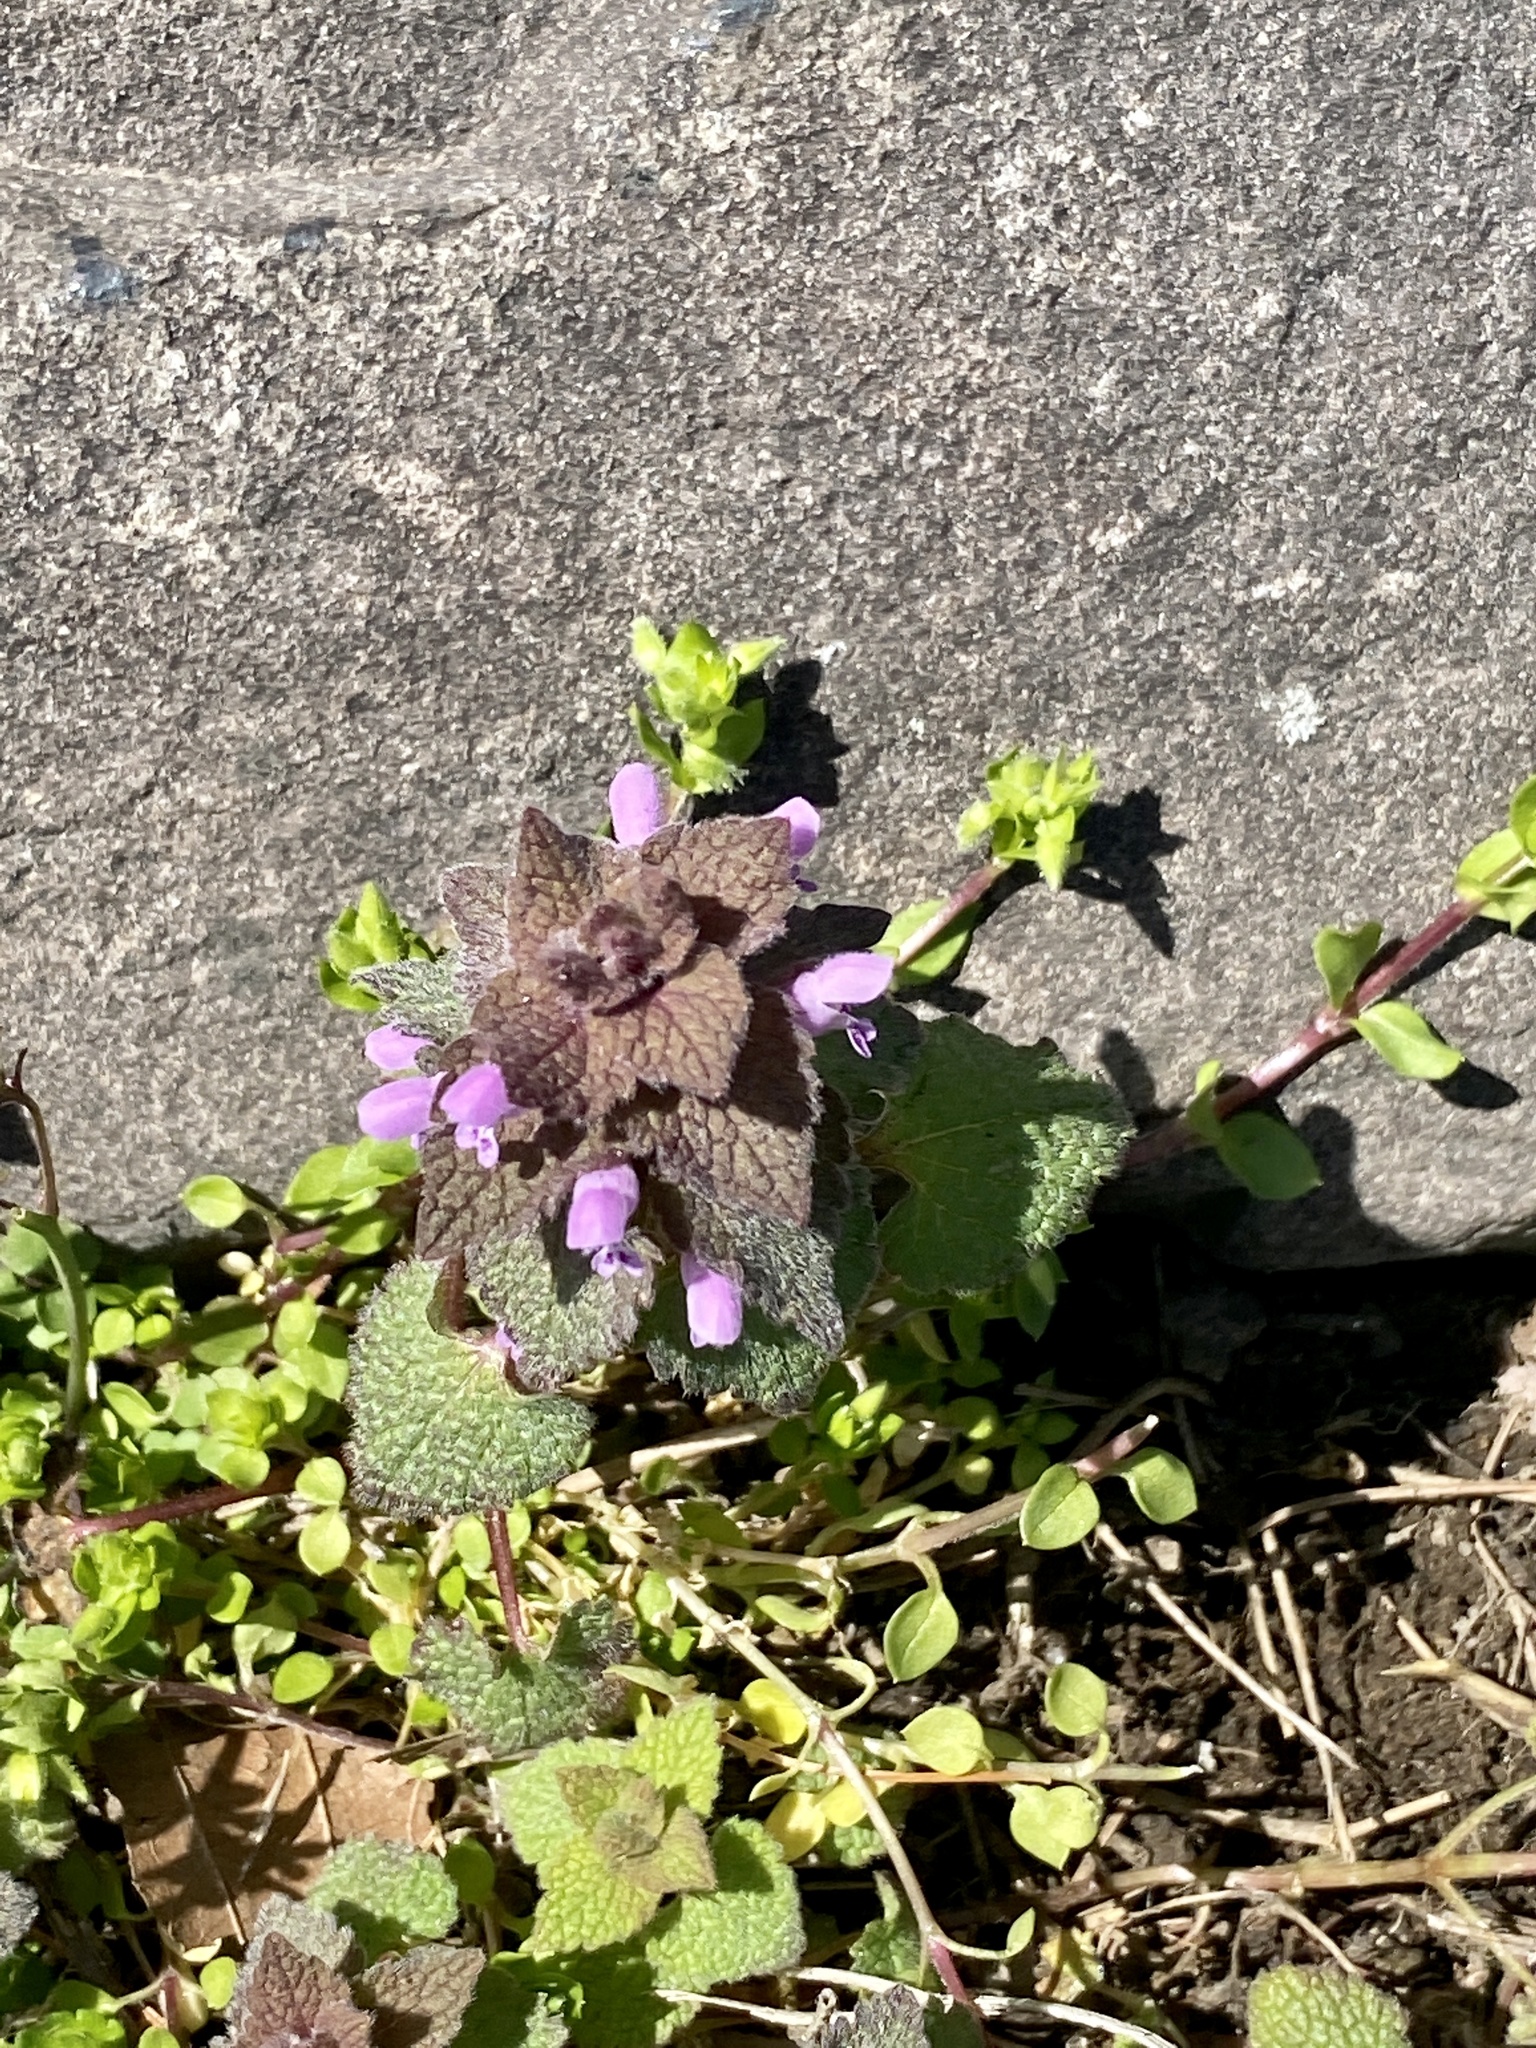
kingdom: Plantae
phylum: Tracheophyta
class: Magnoliopsida
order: Lamiales
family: Lamiaceae
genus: Lamium
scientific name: Lamium purpureum
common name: Red dead-nettle
